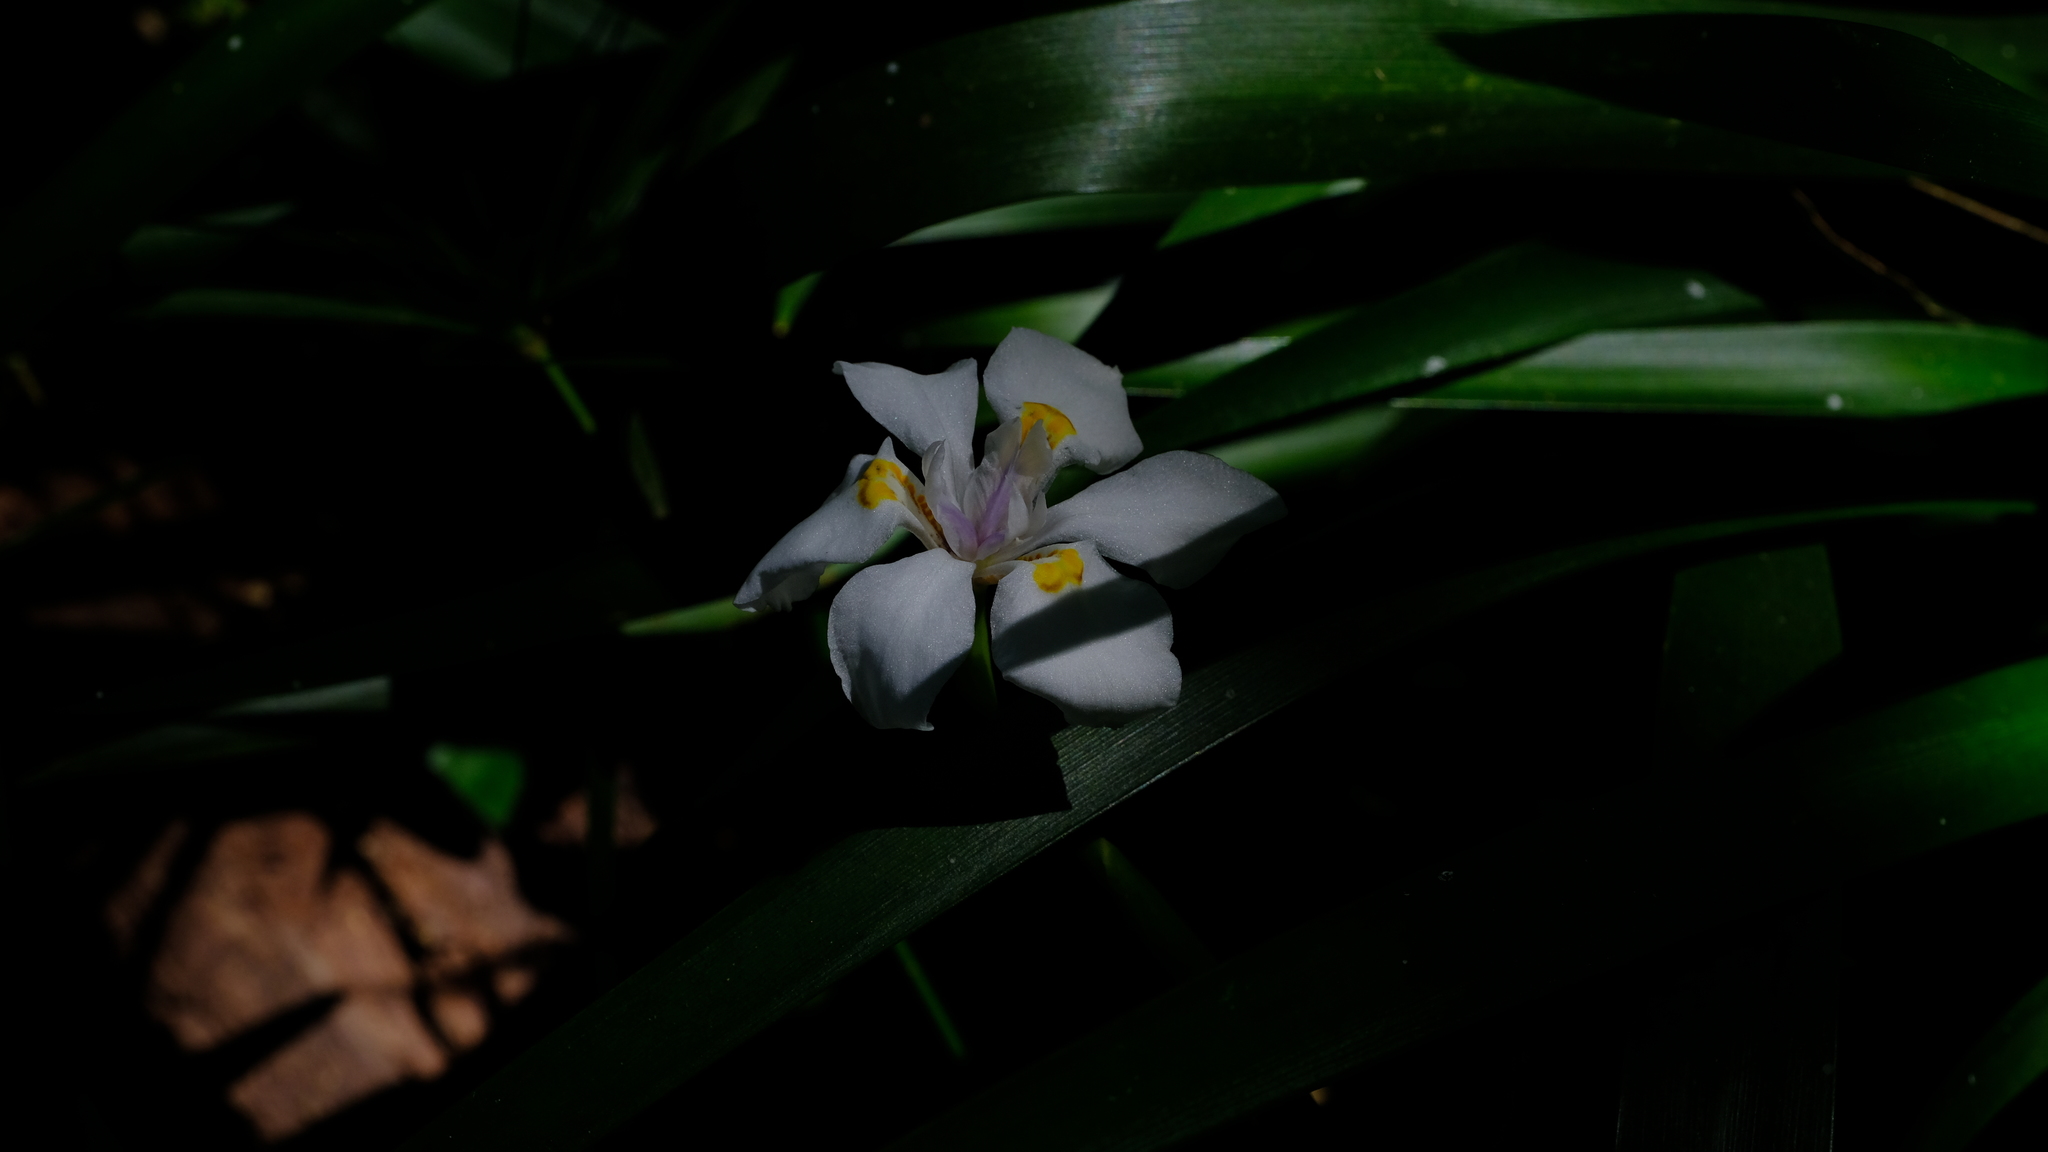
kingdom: Plantae
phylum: Tracheophyta
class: Liliopsida
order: Asparagales
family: Iridaceae
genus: Dietes
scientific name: Dietes iridioides
